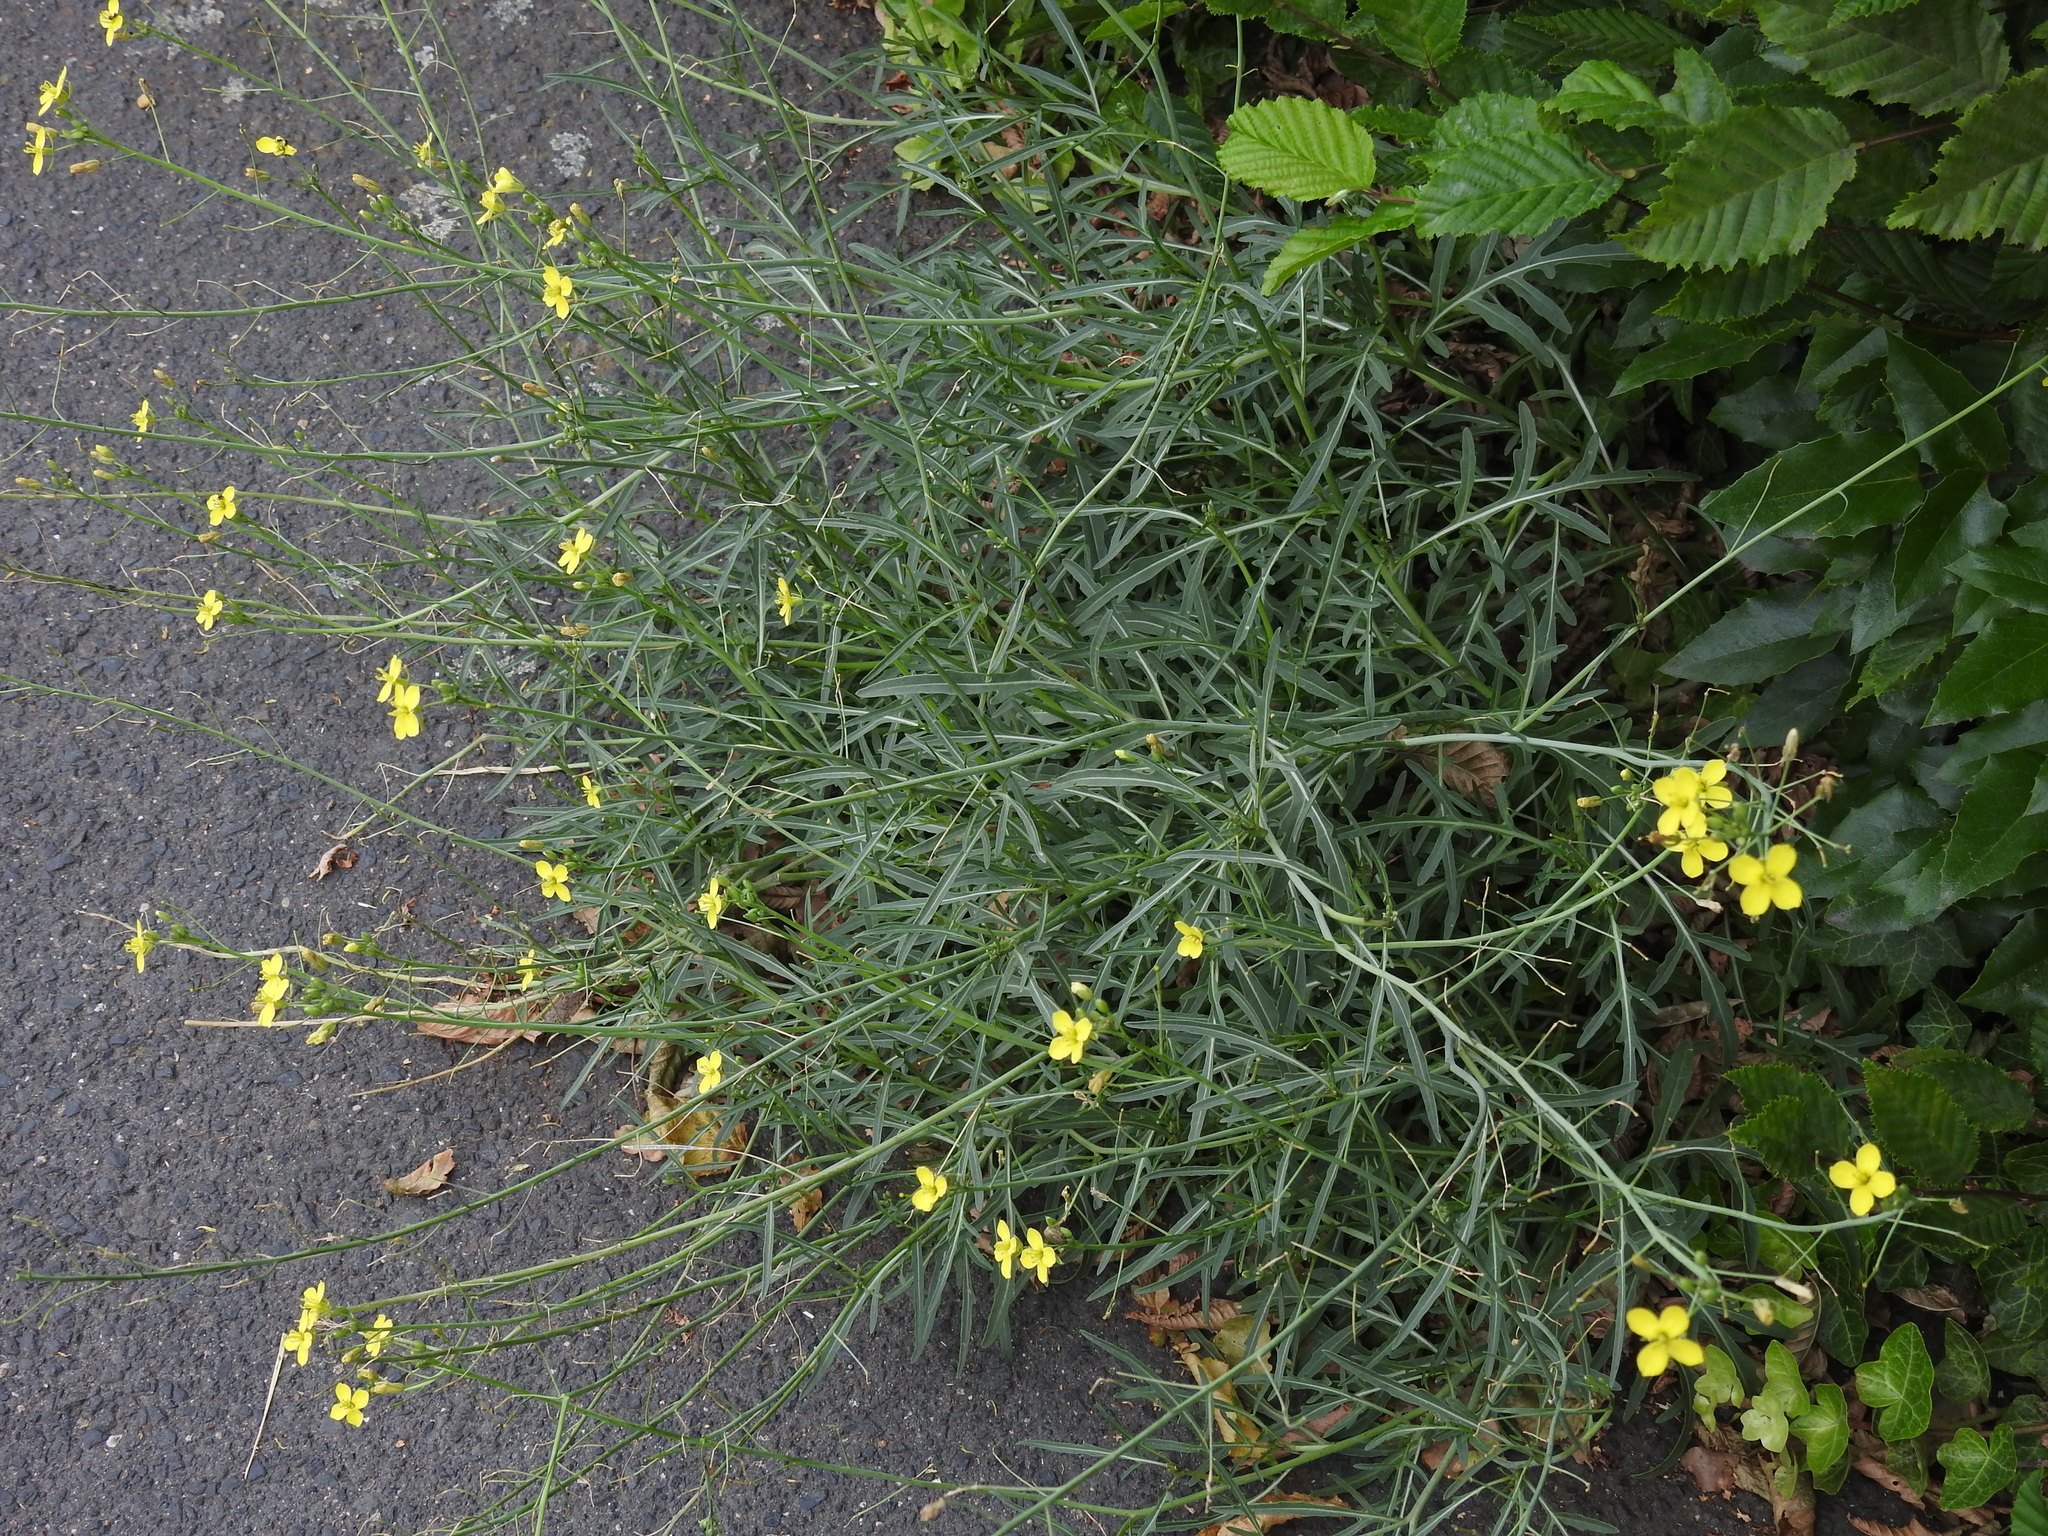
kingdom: Plantae
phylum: Tracheophyta
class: Magnoliopsida
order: Brassicales
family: Brassicaceae
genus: Diplotaxis
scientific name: Diplotaxis tenuifolia
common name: Perennial wall-rocket
